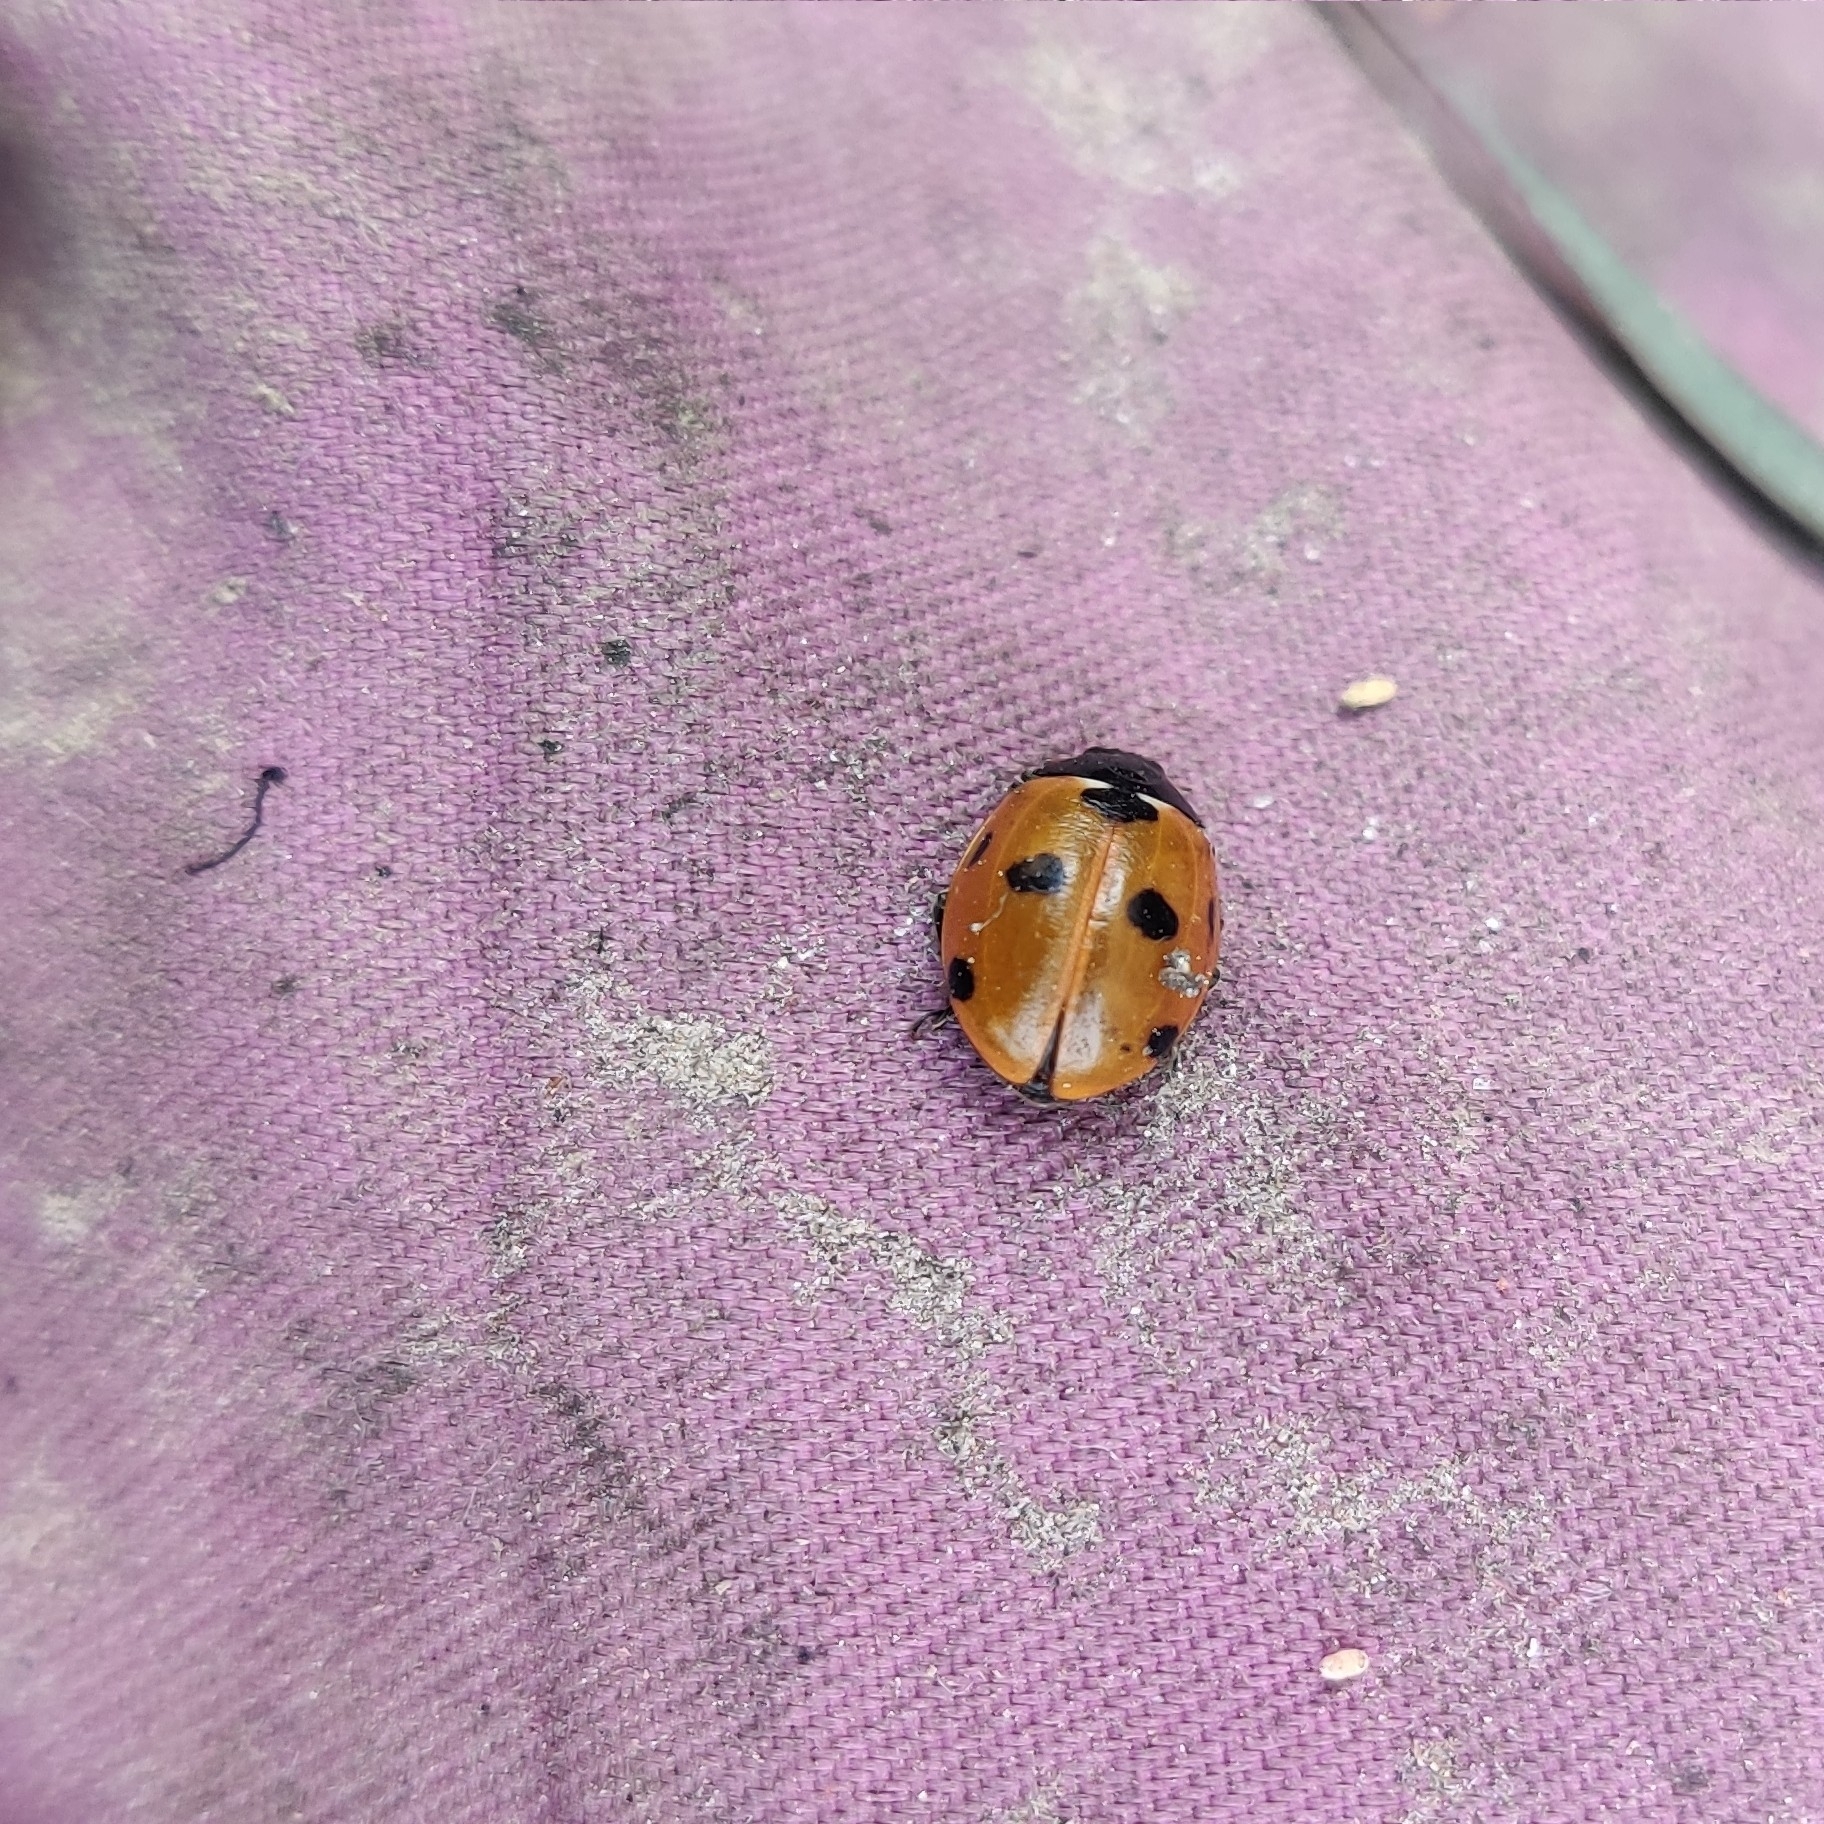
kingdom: Animalia
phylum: Arthropoda
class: Insecta
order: Coleoptera
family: Coccinellidae
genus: Coccinella
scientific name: Coccinella septempunctata
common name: Sevenspotted lady beetle
